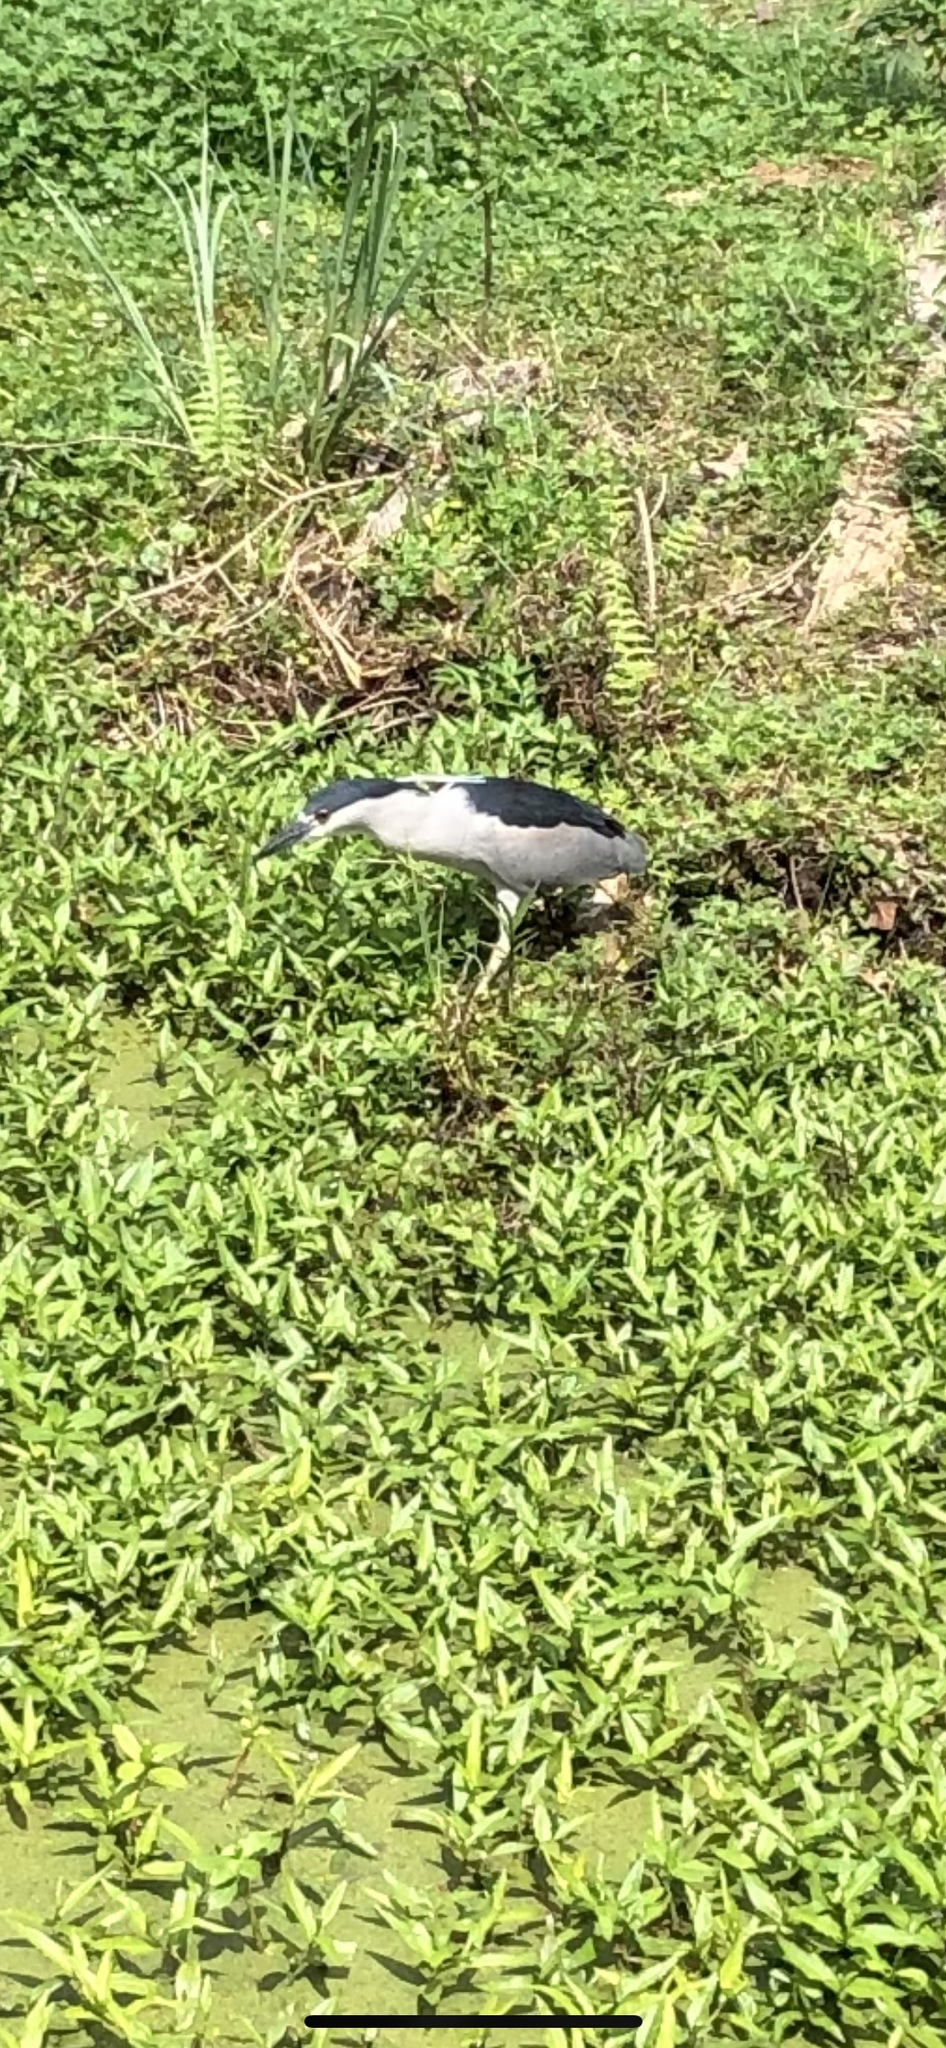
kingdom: Animalia
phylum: Chordata
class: Aves
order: Pelecaniformes
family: Ardeidae
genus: Nycticorax
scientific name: Nycticorax nycticorax
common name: Black-crowned night heron
